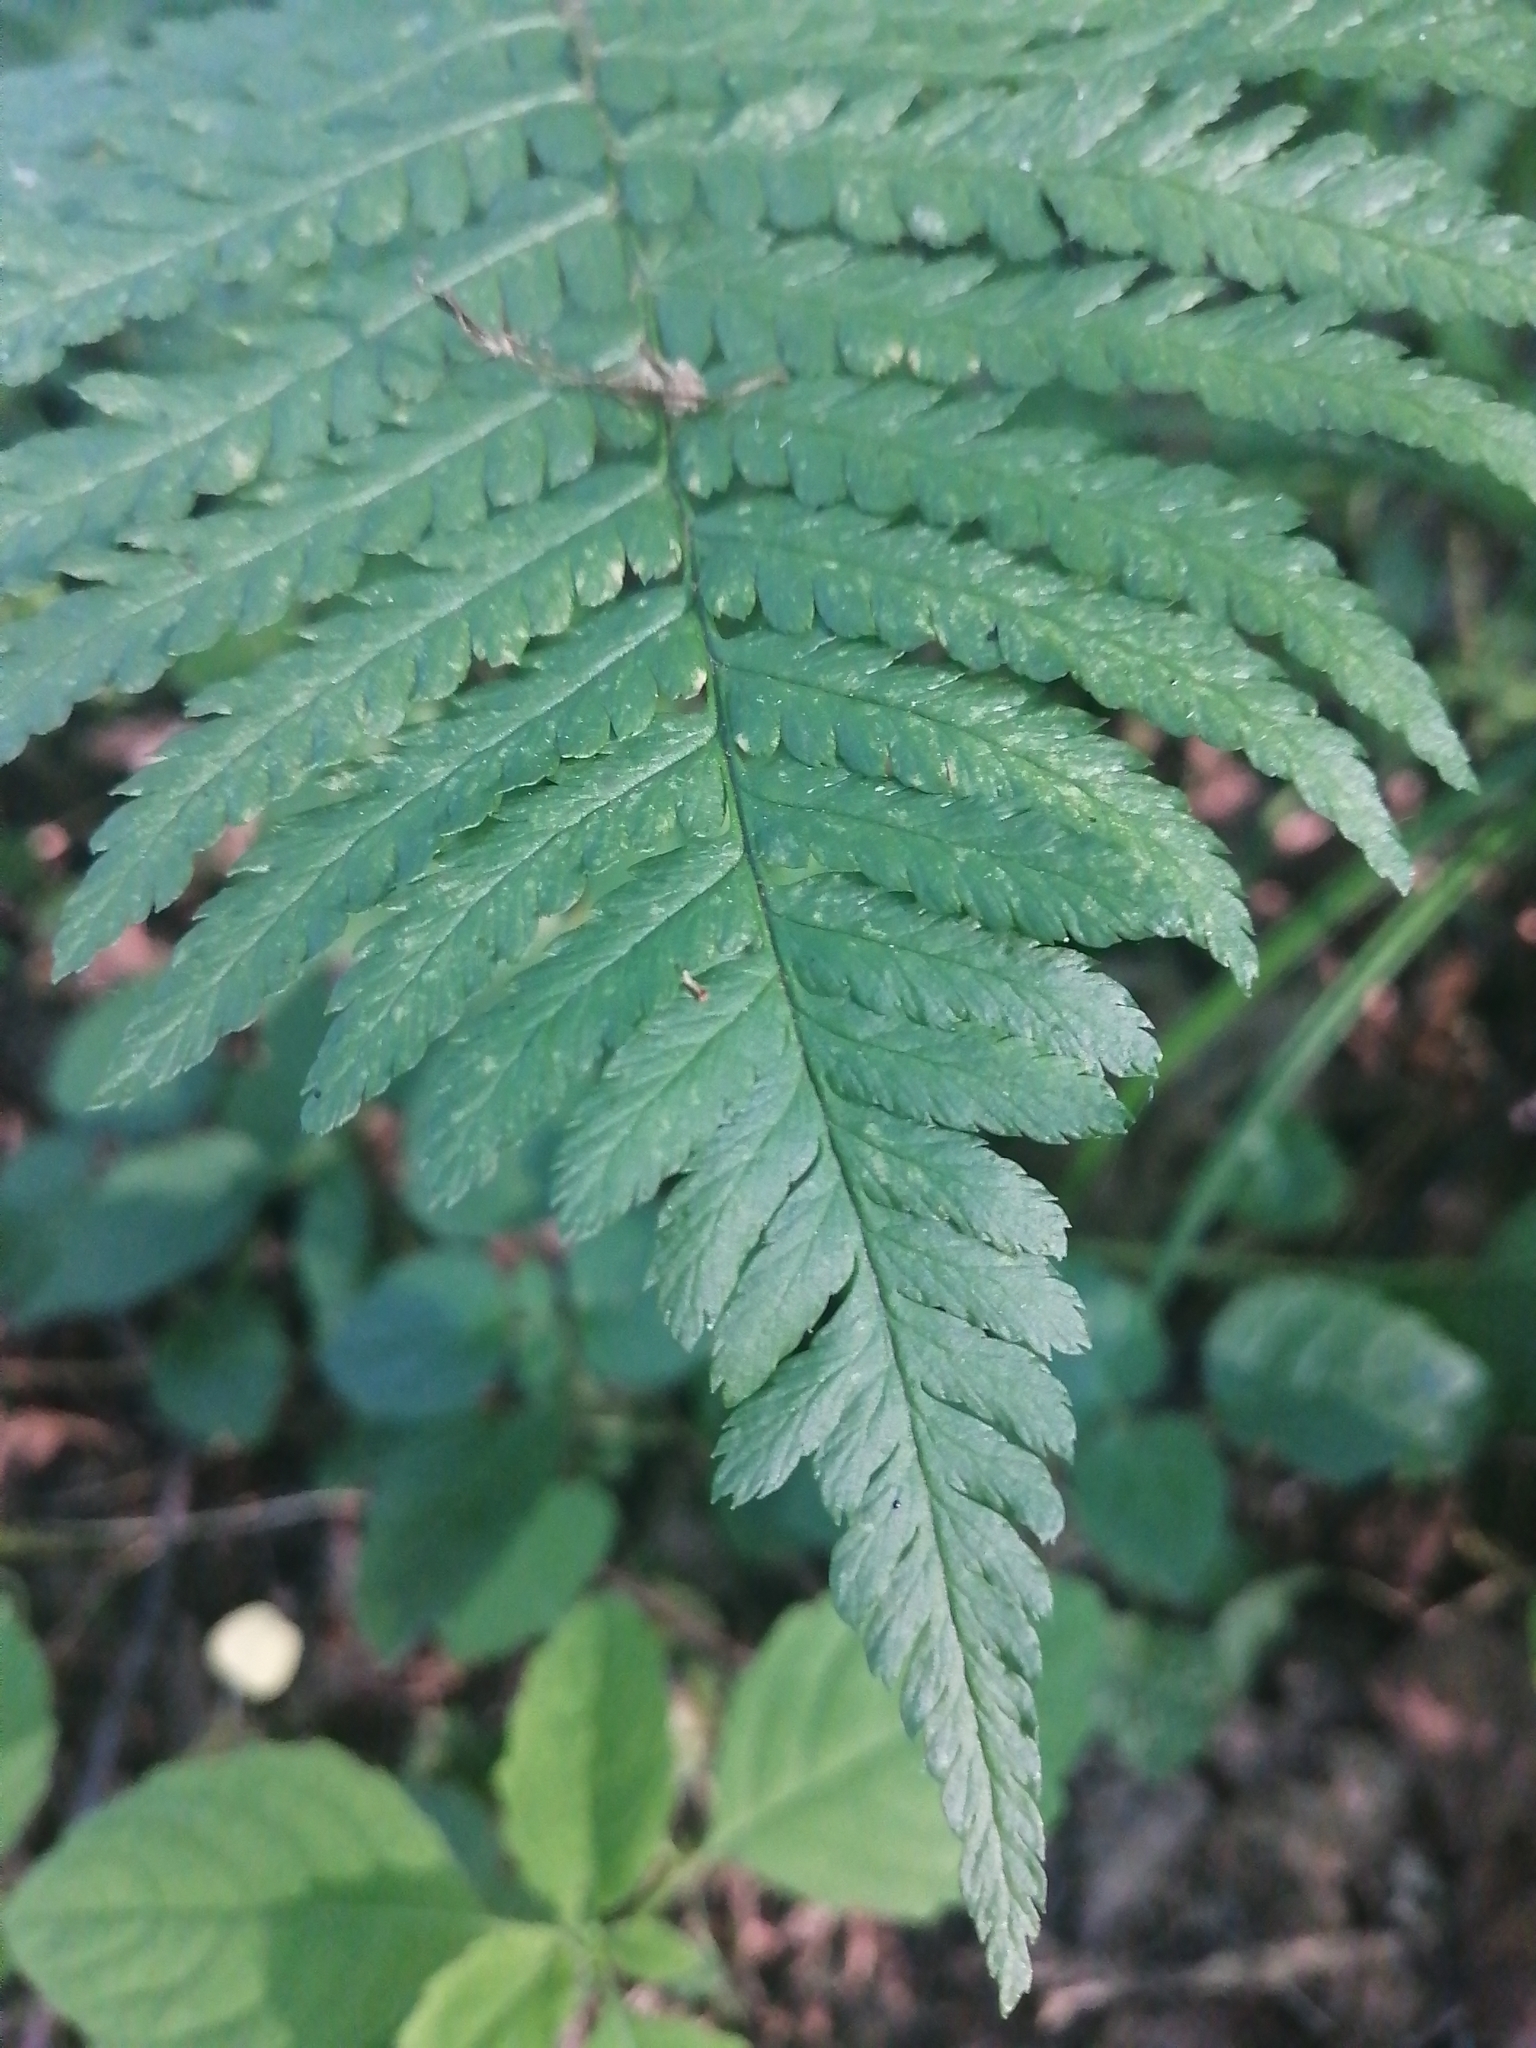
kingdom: Plantae
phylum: Tracheophyta
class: Polypodiopsida
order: Polypodiales
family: Dryopteridaceae
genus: Dryopteris
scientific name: Dryopteris filix-mas
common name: Male fern
